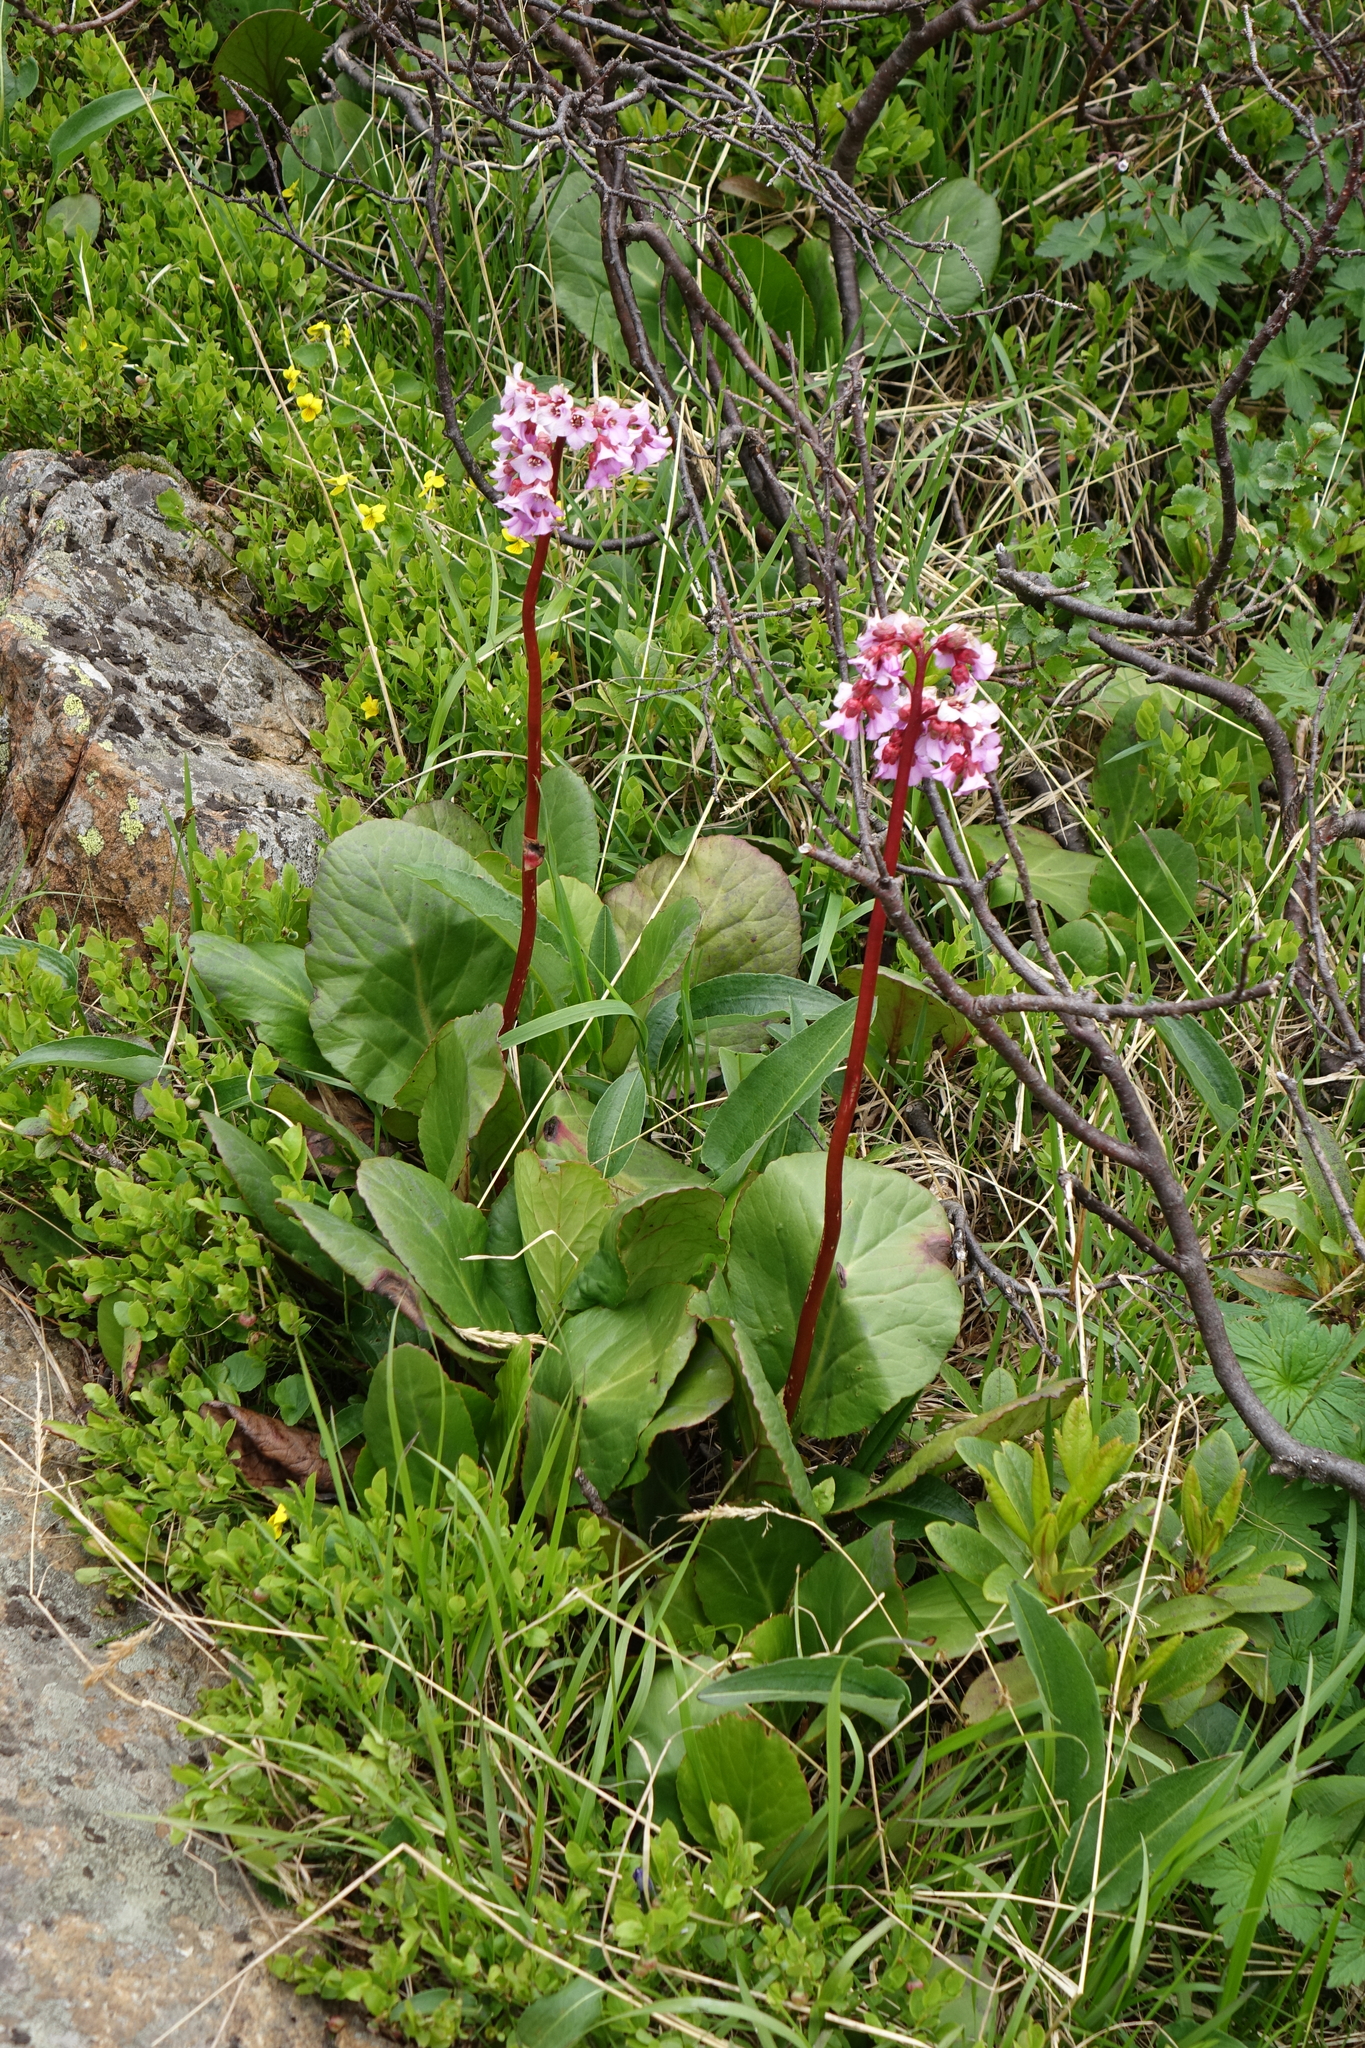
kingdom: Plantae
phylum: Tracheophyta
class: Magnoliopsida
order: Saxifragales
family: Saxifragaceae
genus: Bergenia
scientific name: Bergenia crassifolia
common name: Elephant-ears
